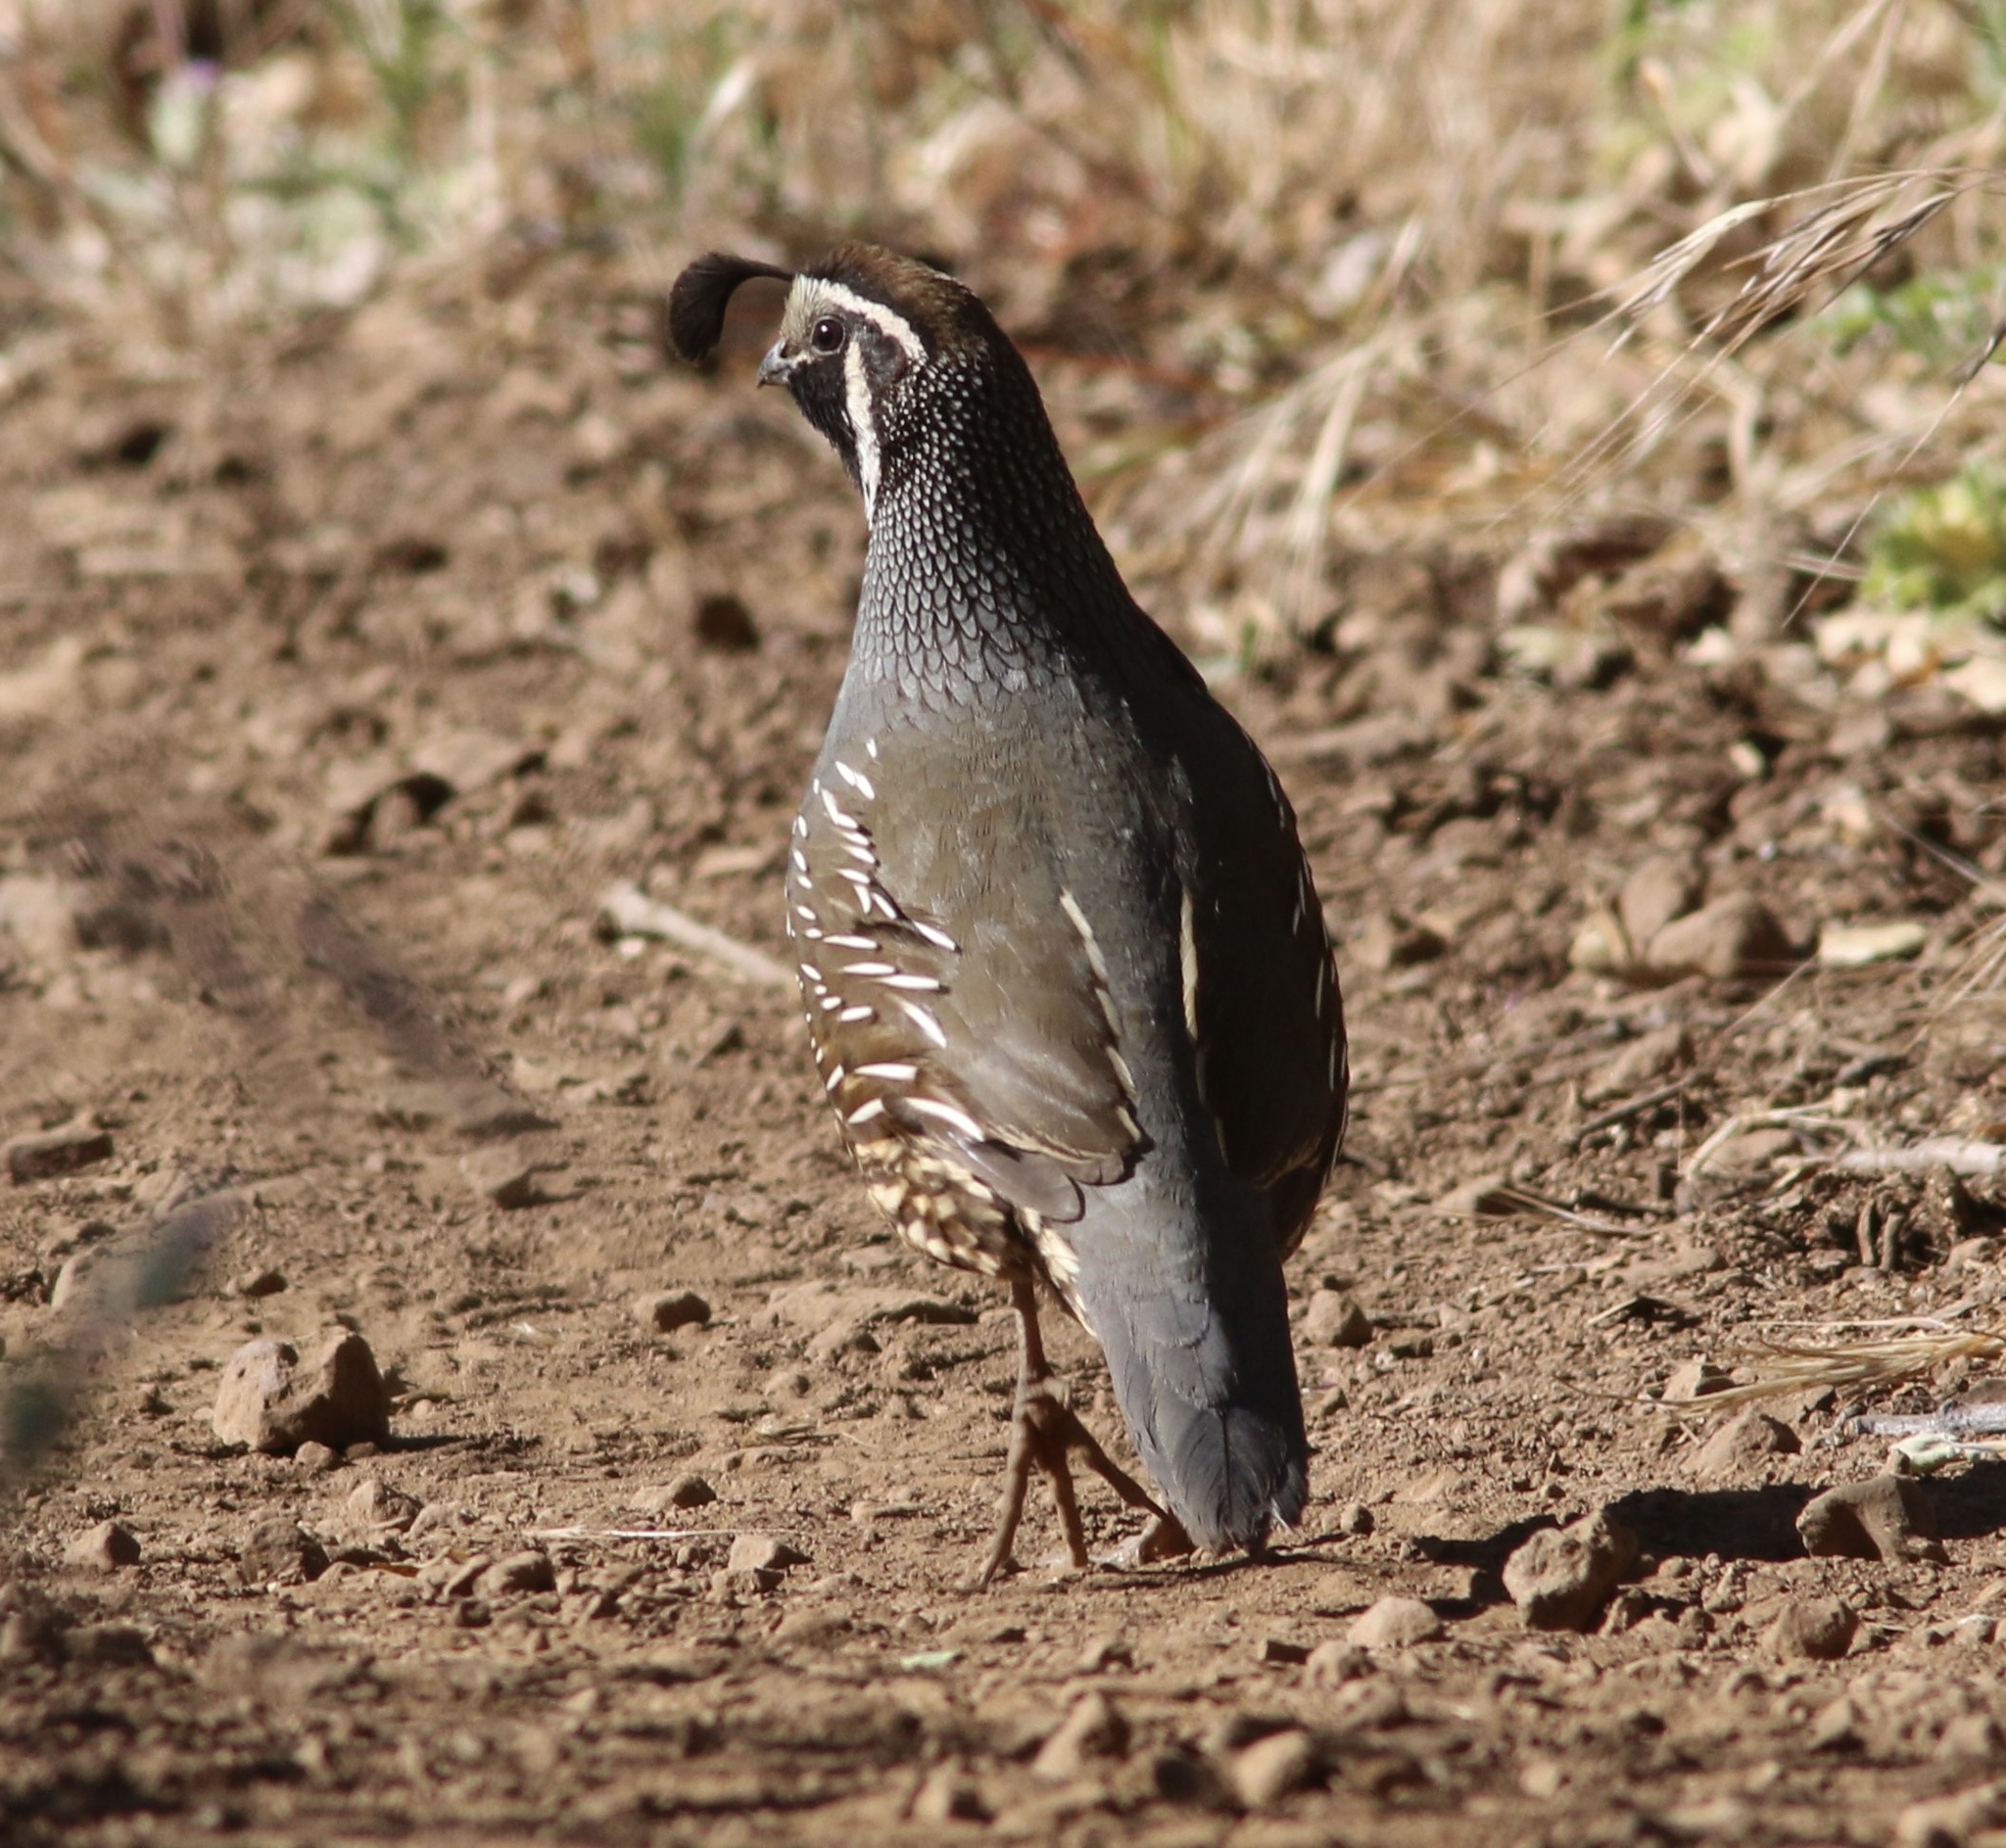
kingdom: Animalia
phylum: Chordata
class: Aves
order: Galliformes
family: Odontophoridae
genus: Callipepla
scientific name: Callipepla californica
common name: California quail
